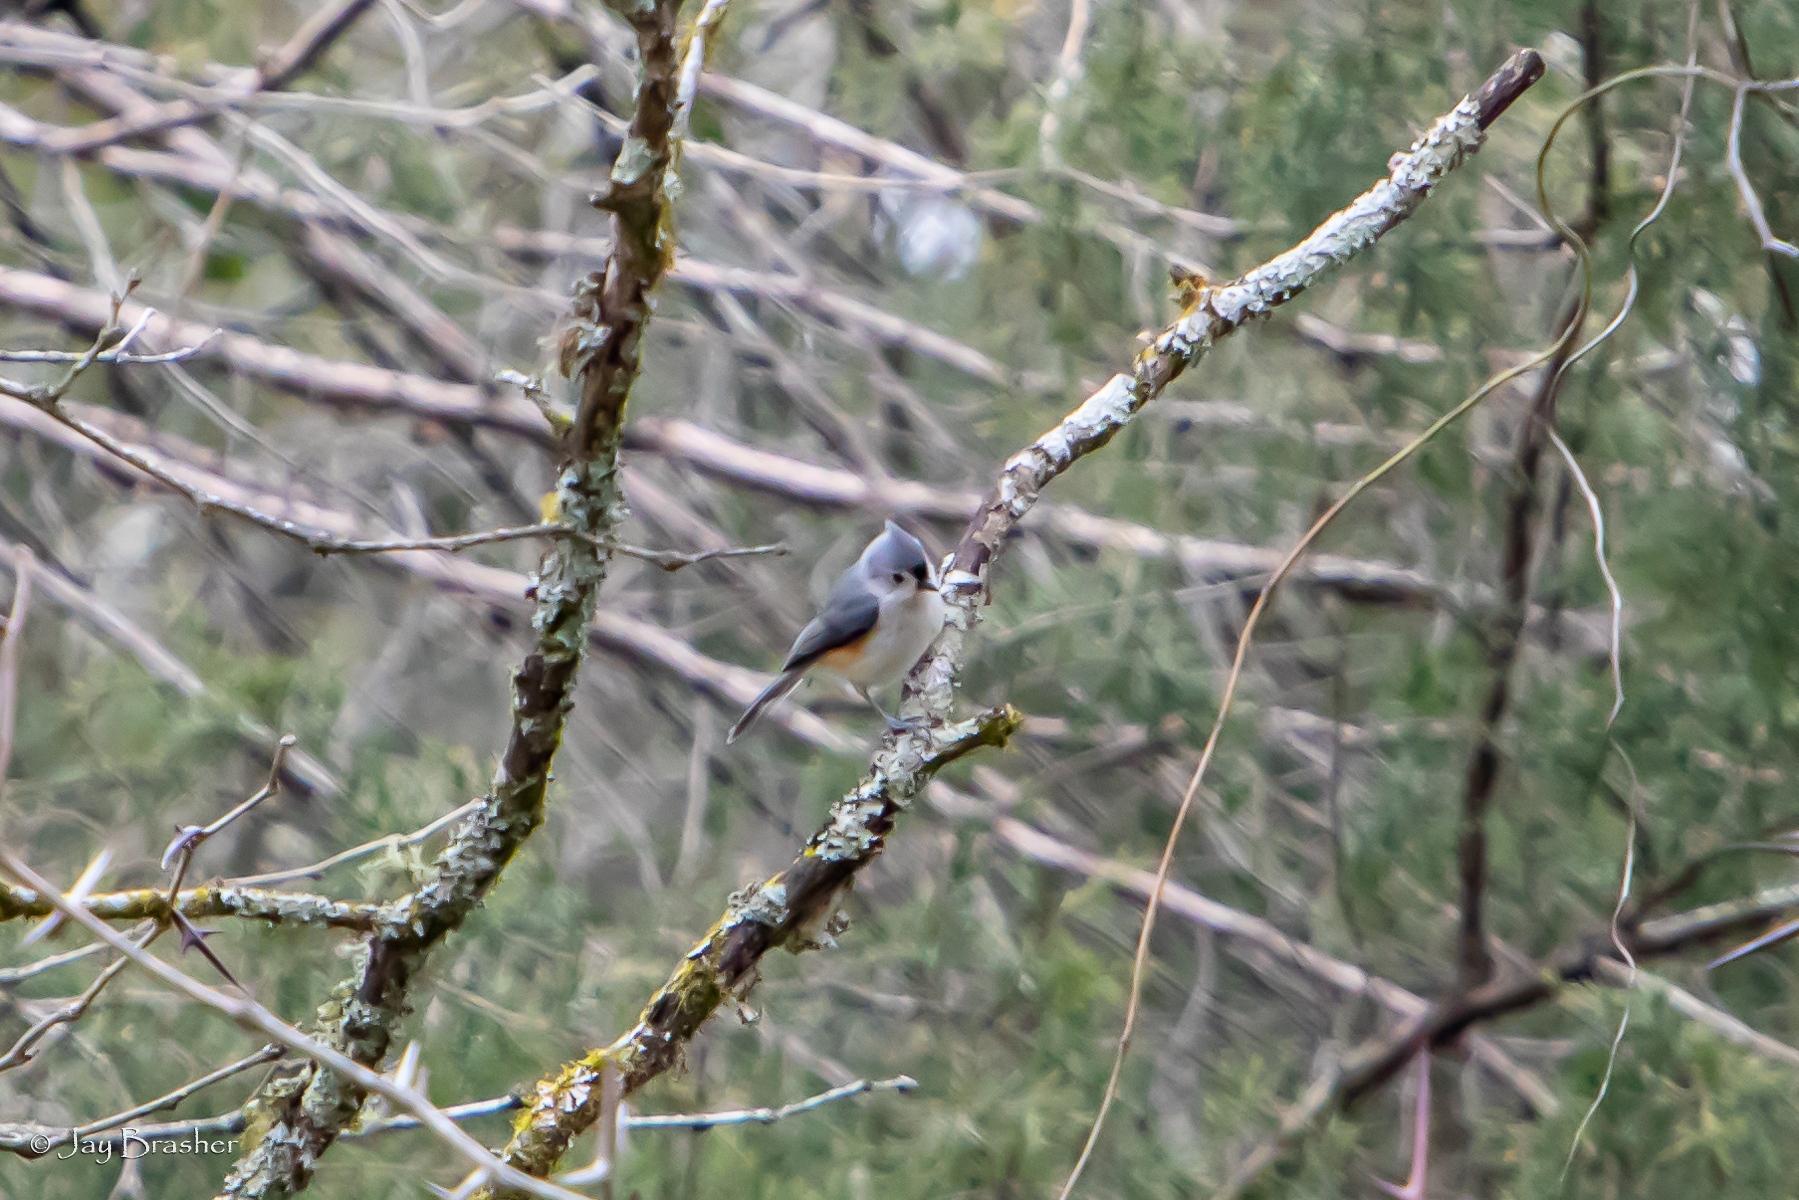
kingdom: Animalia
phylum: Chordata
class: Aves
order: Passeriformes
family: Paridae
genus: Baeolophus
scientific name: Baeolophus bicolor
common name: Tufted titmouse
